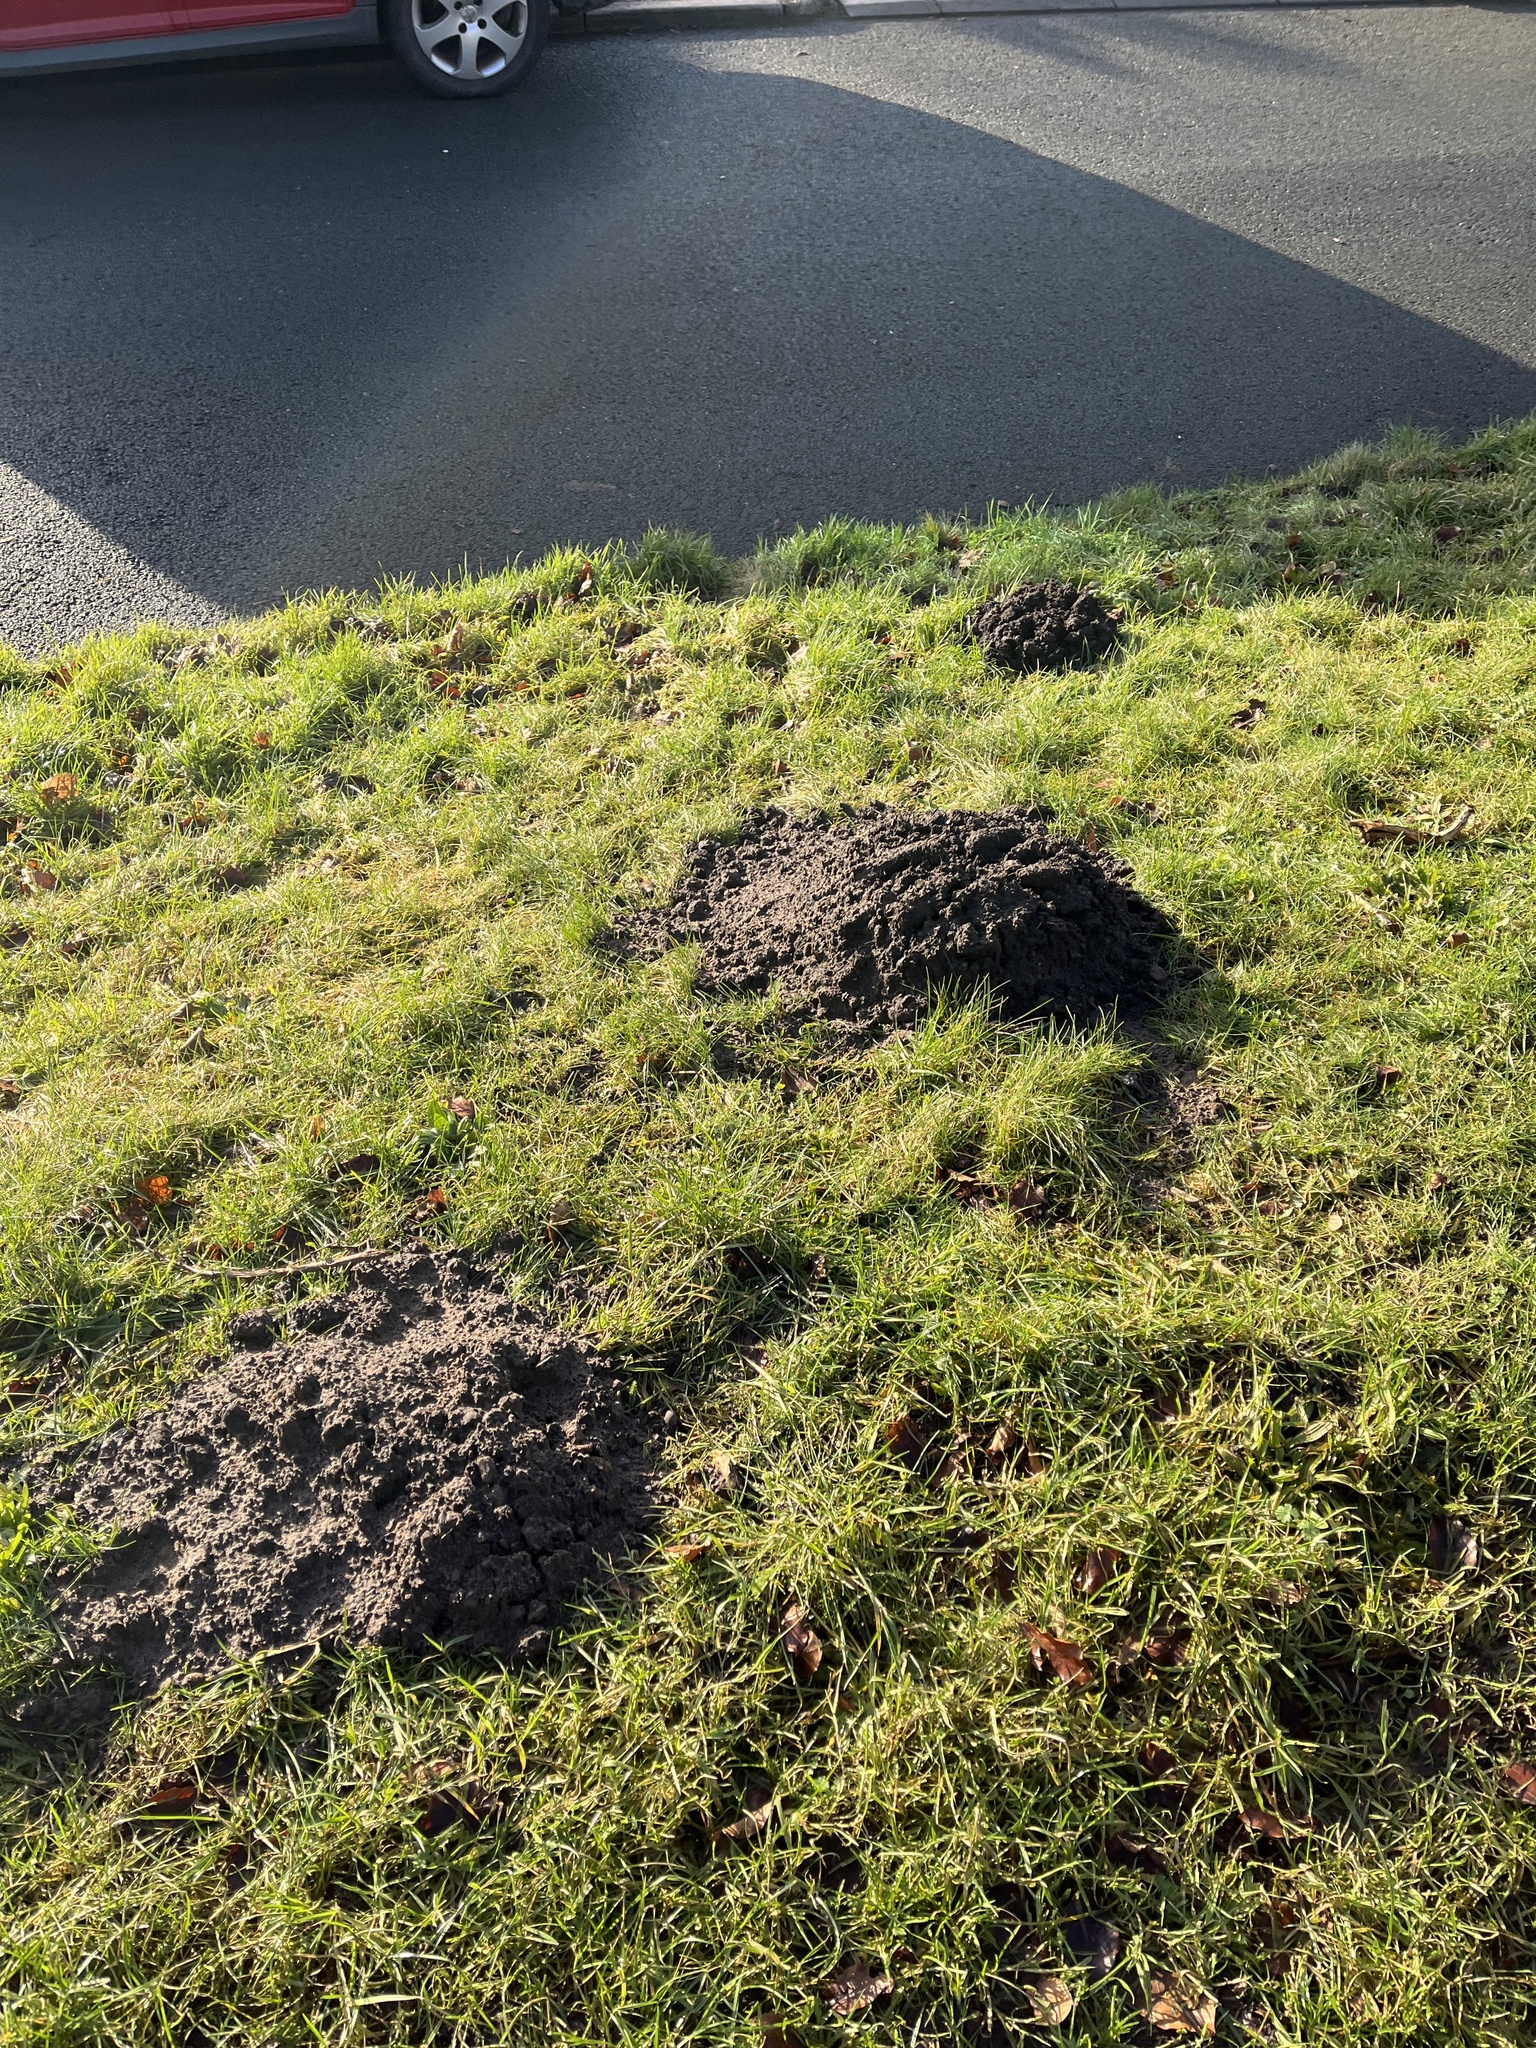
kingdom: Animalia
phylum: Chordata
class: Mammalia
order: Soricomorpha
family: Talpidae
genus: Talpa
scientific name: Talpa europaea
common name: European mole
